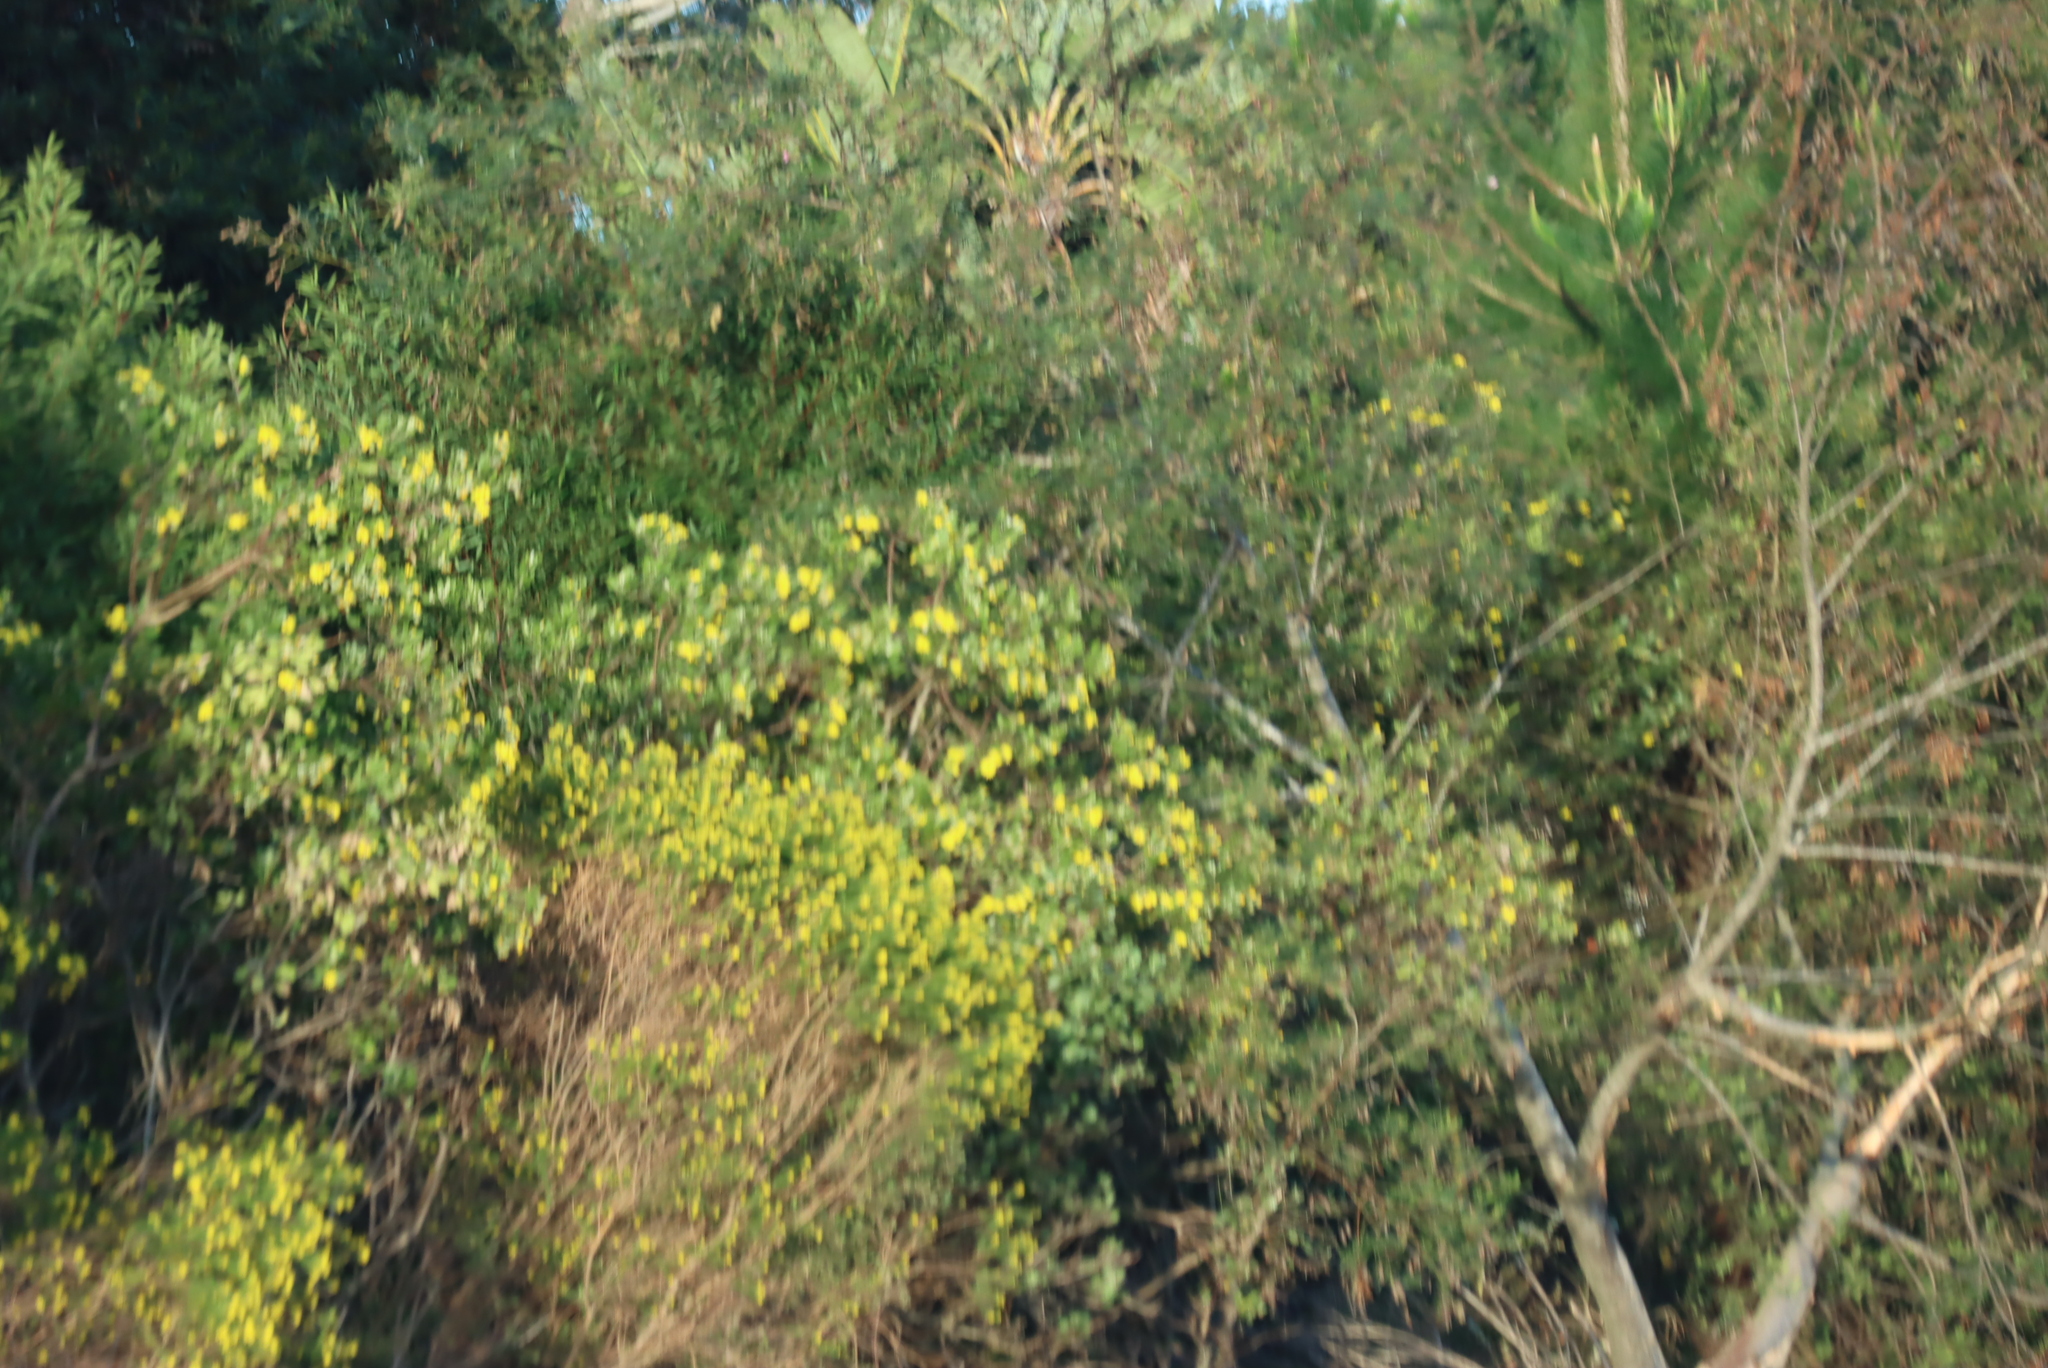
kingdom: Plantae
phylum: Tracheophyta
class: Magnoliopsida
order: Asterales
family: Asteraceae
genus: Osteospermum
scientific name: Osteospermum moniliferum
